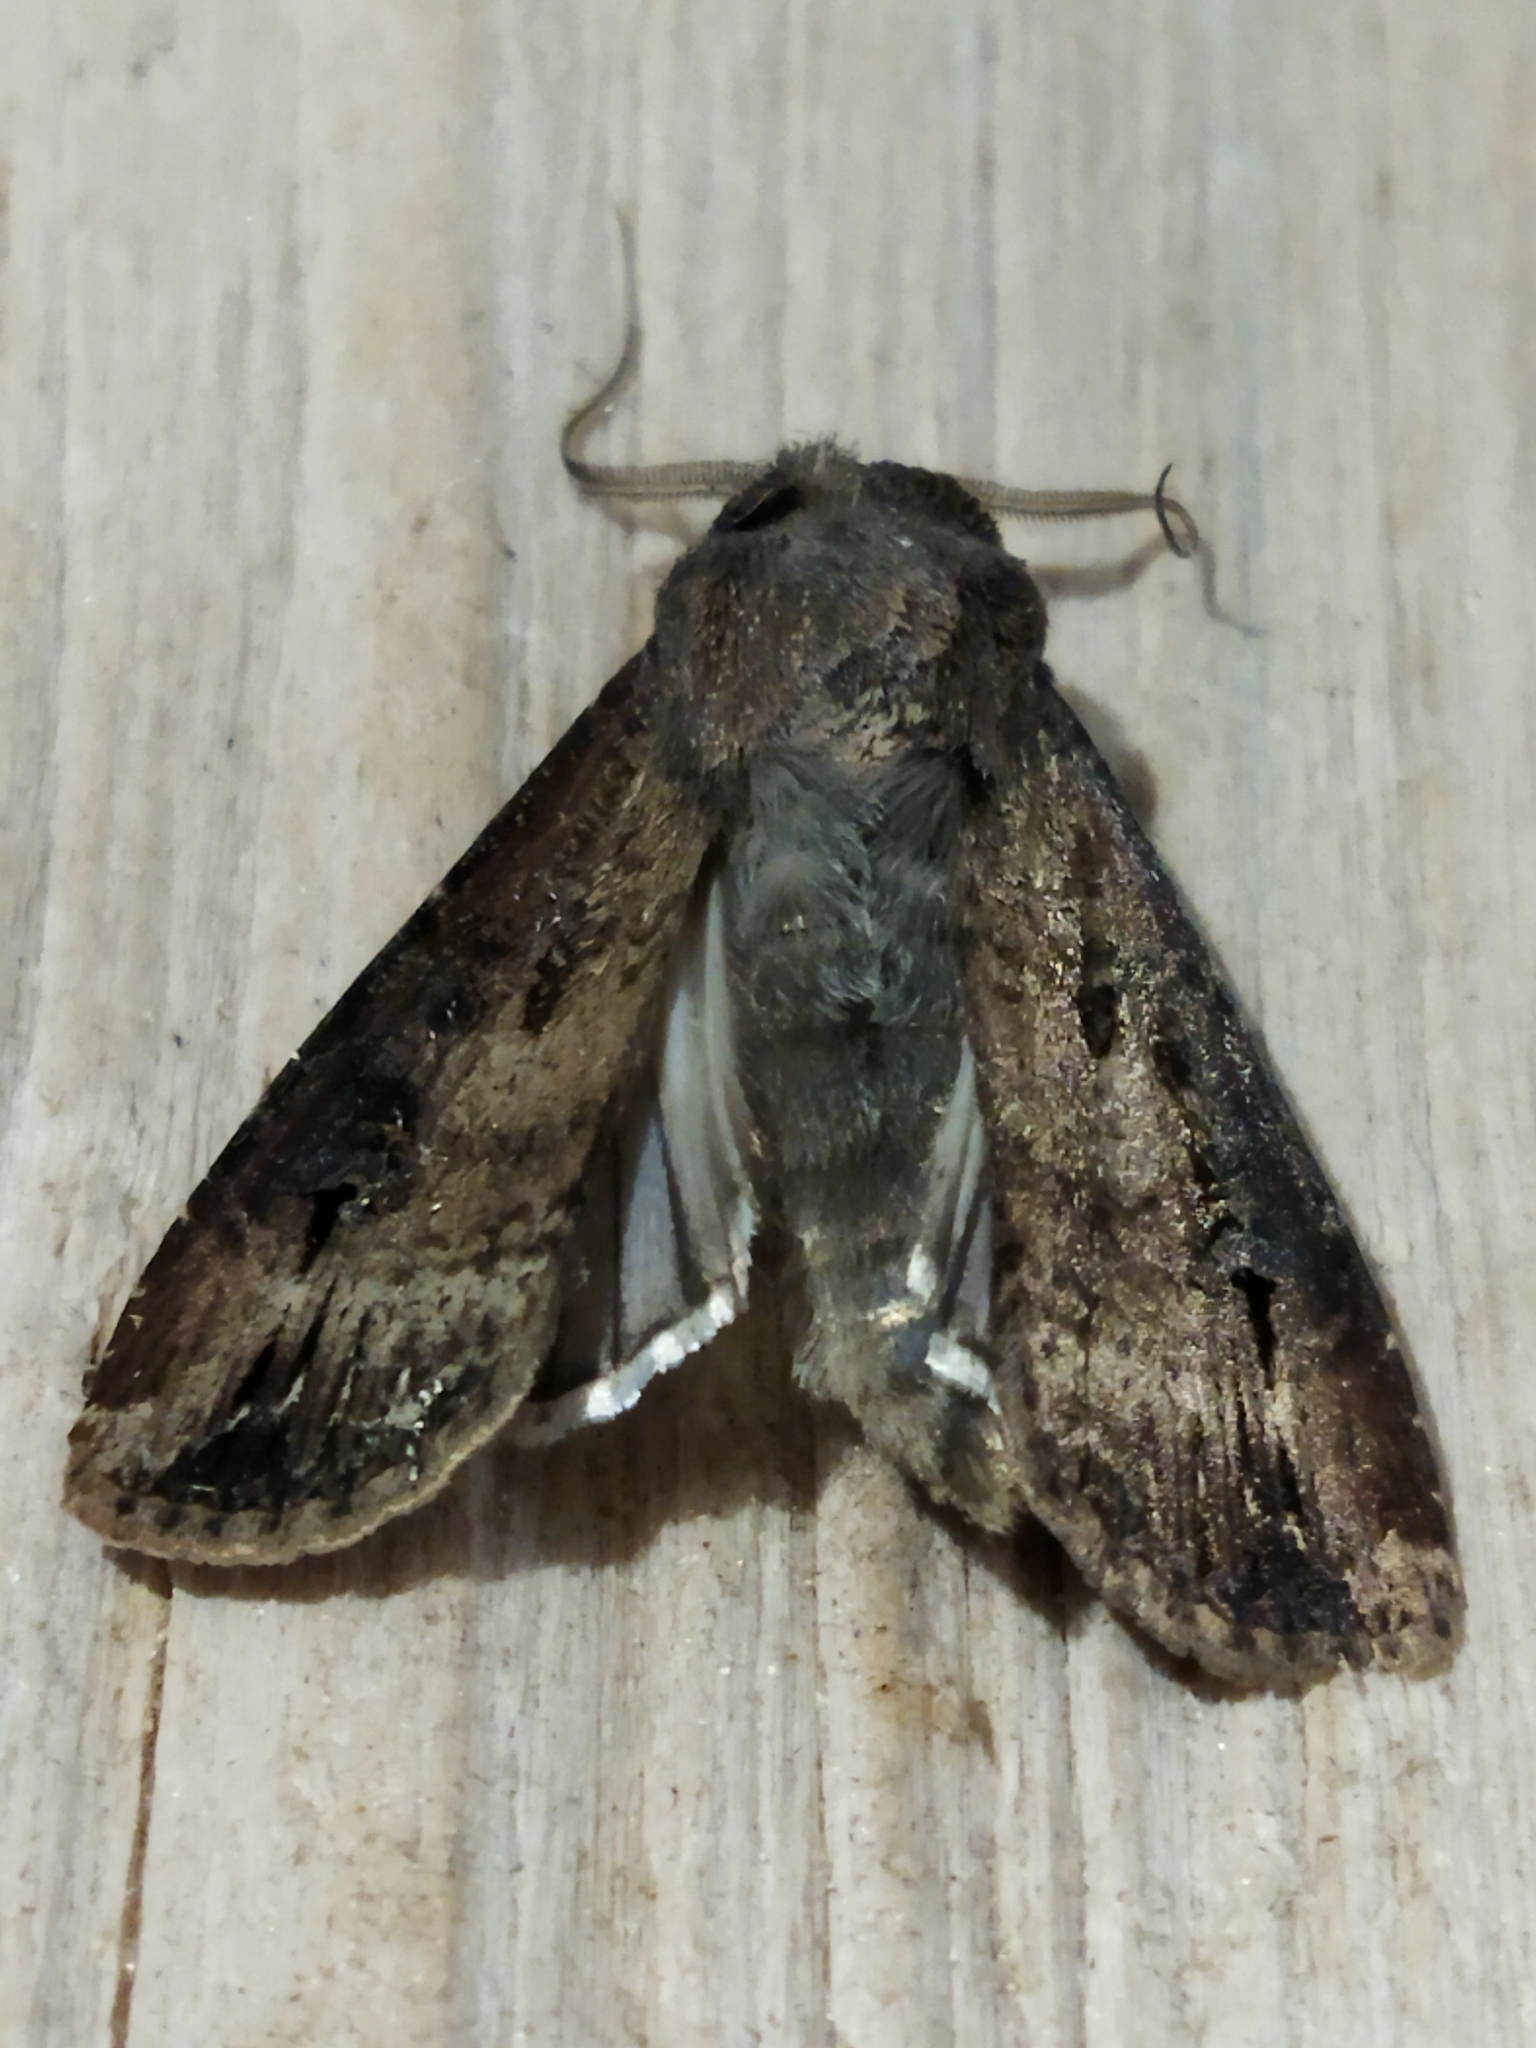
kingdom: Animalia
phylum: Arthropoda
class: Insecta
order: Lepidoptera
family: Noctuidae
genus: Agrotis
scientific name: Agrotis ipsilon
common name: Dark sword-grass
